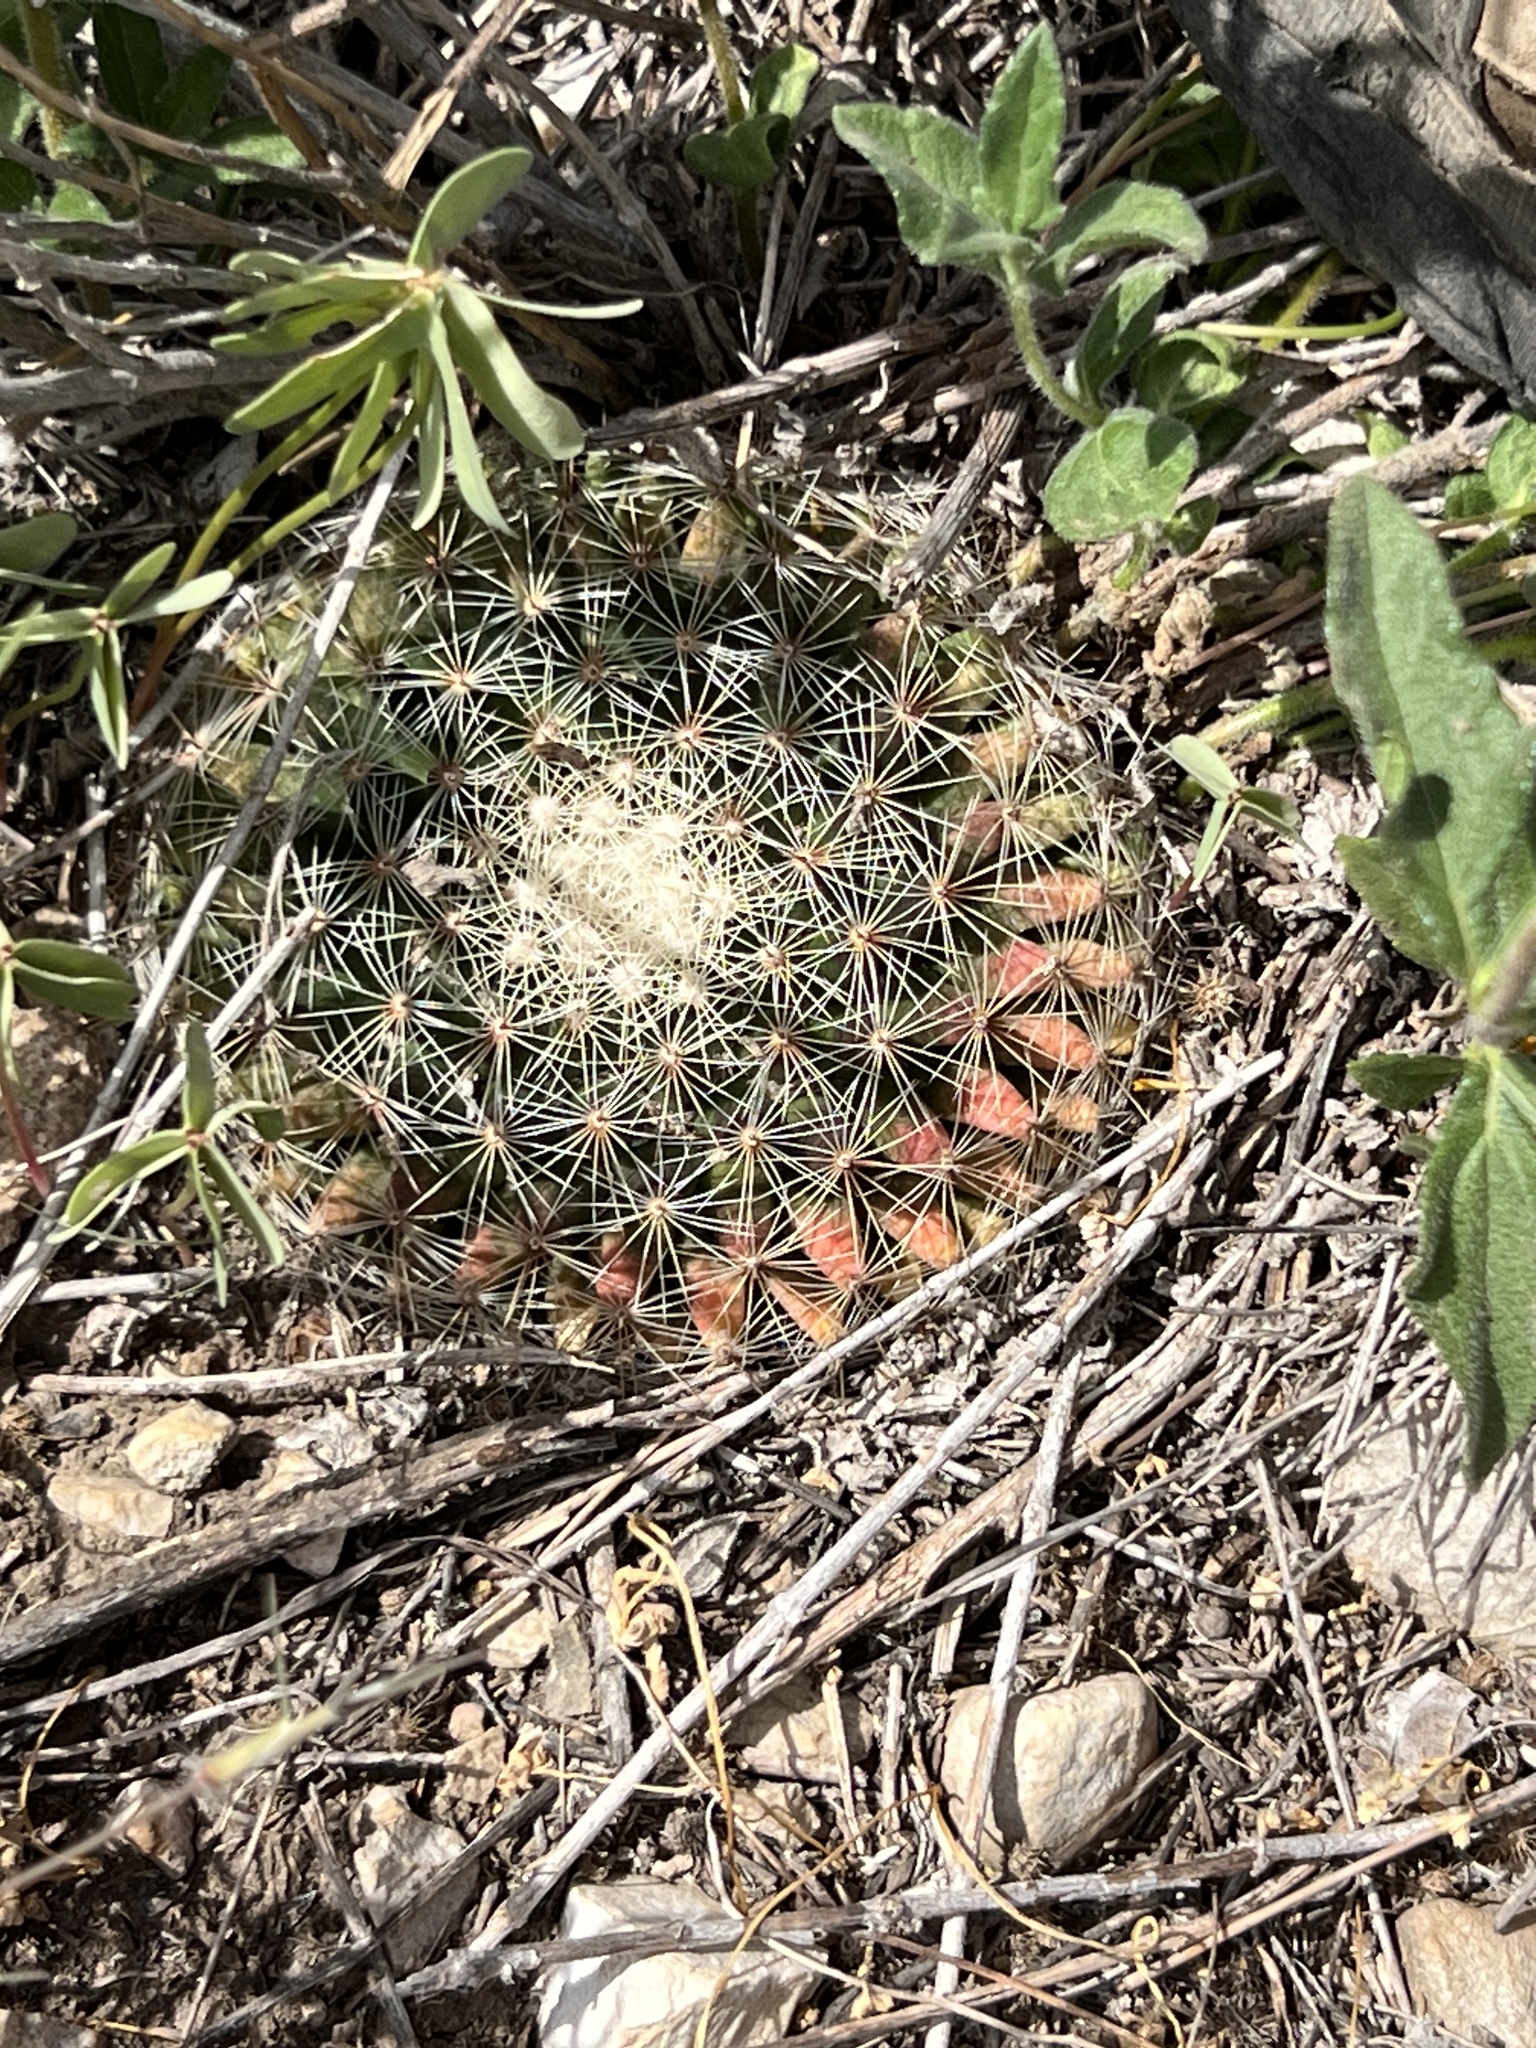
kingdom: Plantae
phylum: Tracheophyta
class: Magnoliopsida
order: Caryophyllales
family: Cactaceae
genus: Mammillaria
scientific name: Mammillaria heyderi
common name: Little nipple cactus
